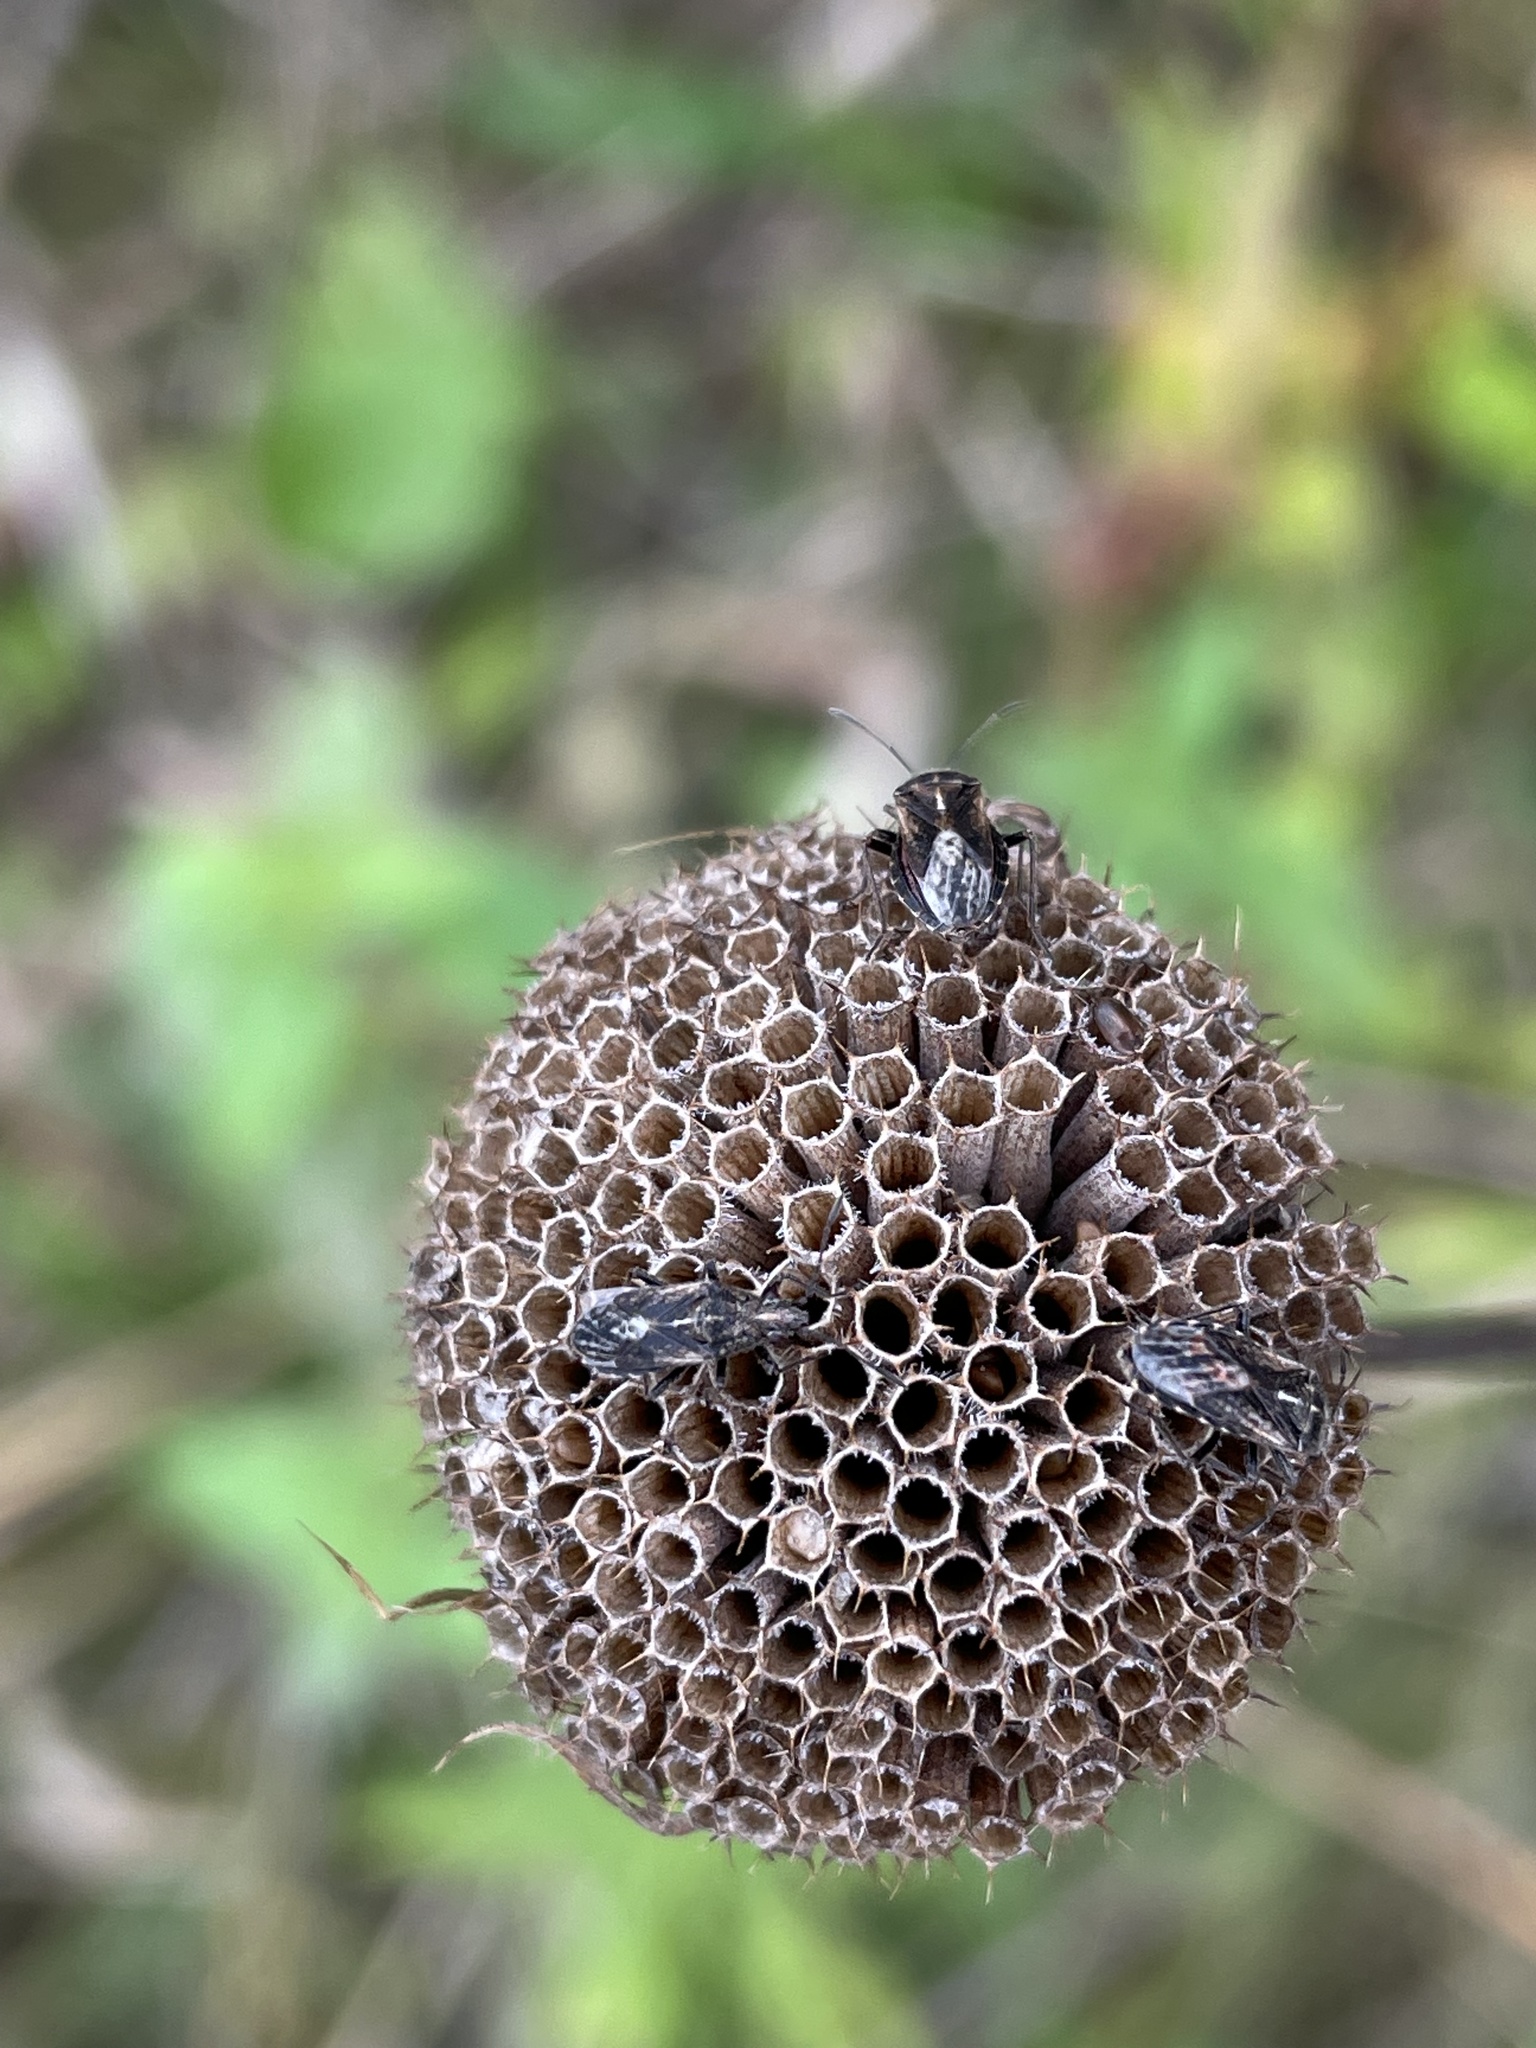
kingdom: Animalia
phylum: Arthropoda
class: Insecta
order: Hemiptera
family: Lygaeidae
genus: Neortholomus
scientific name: Neortholomus scolopax
